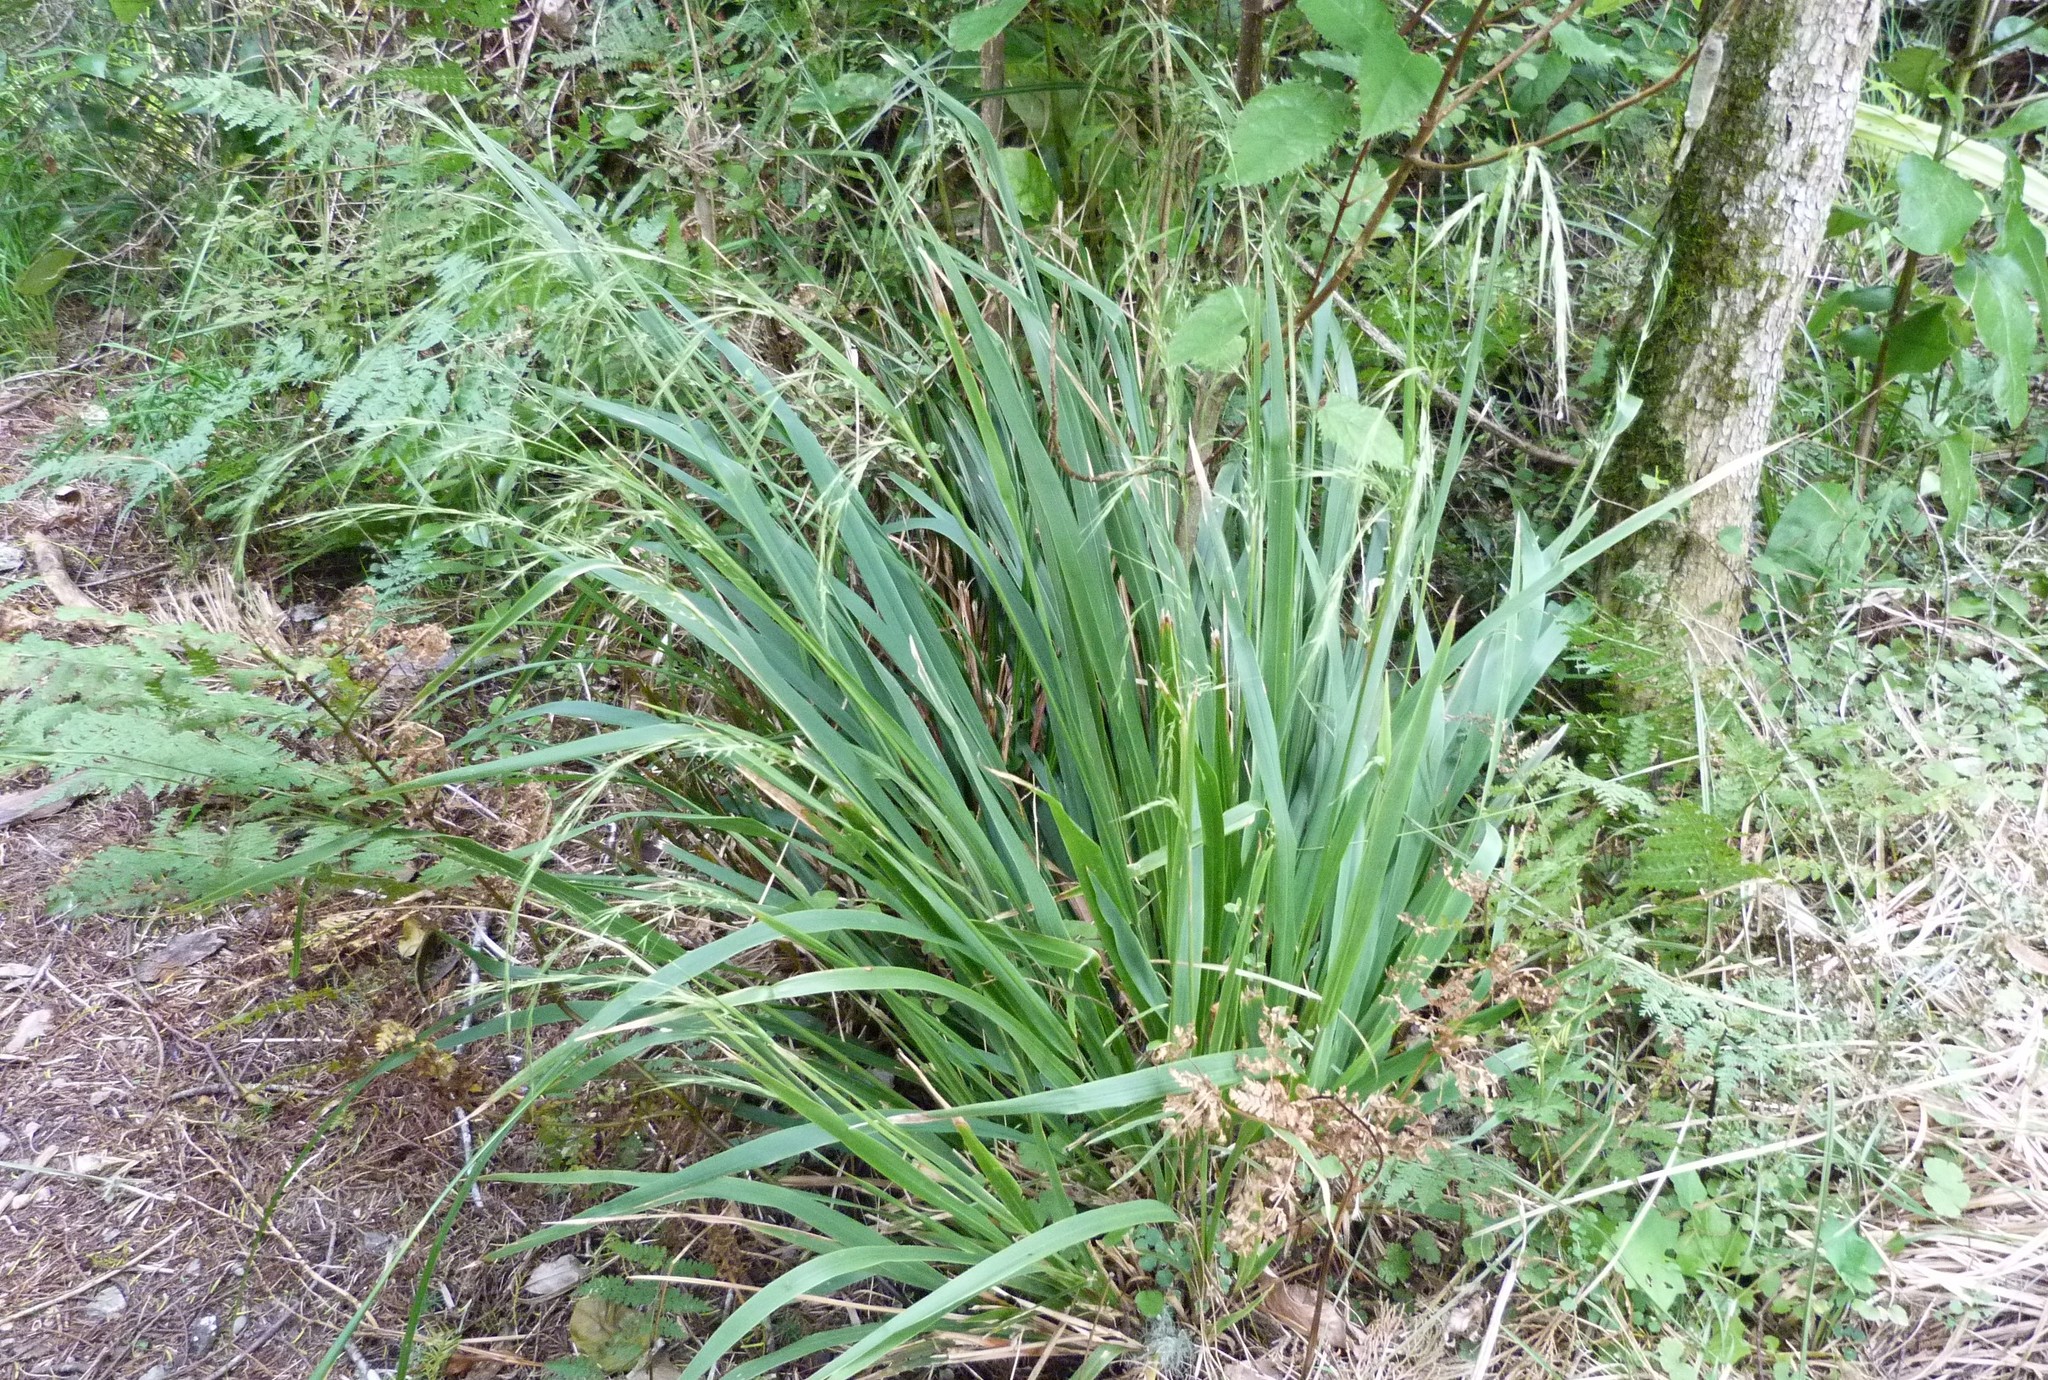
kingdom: Plantae
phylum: Tracheophyta
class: Liliopsida
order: Poales
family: Poaceae
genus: Ehrharta
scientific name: Ehrharta diplax
